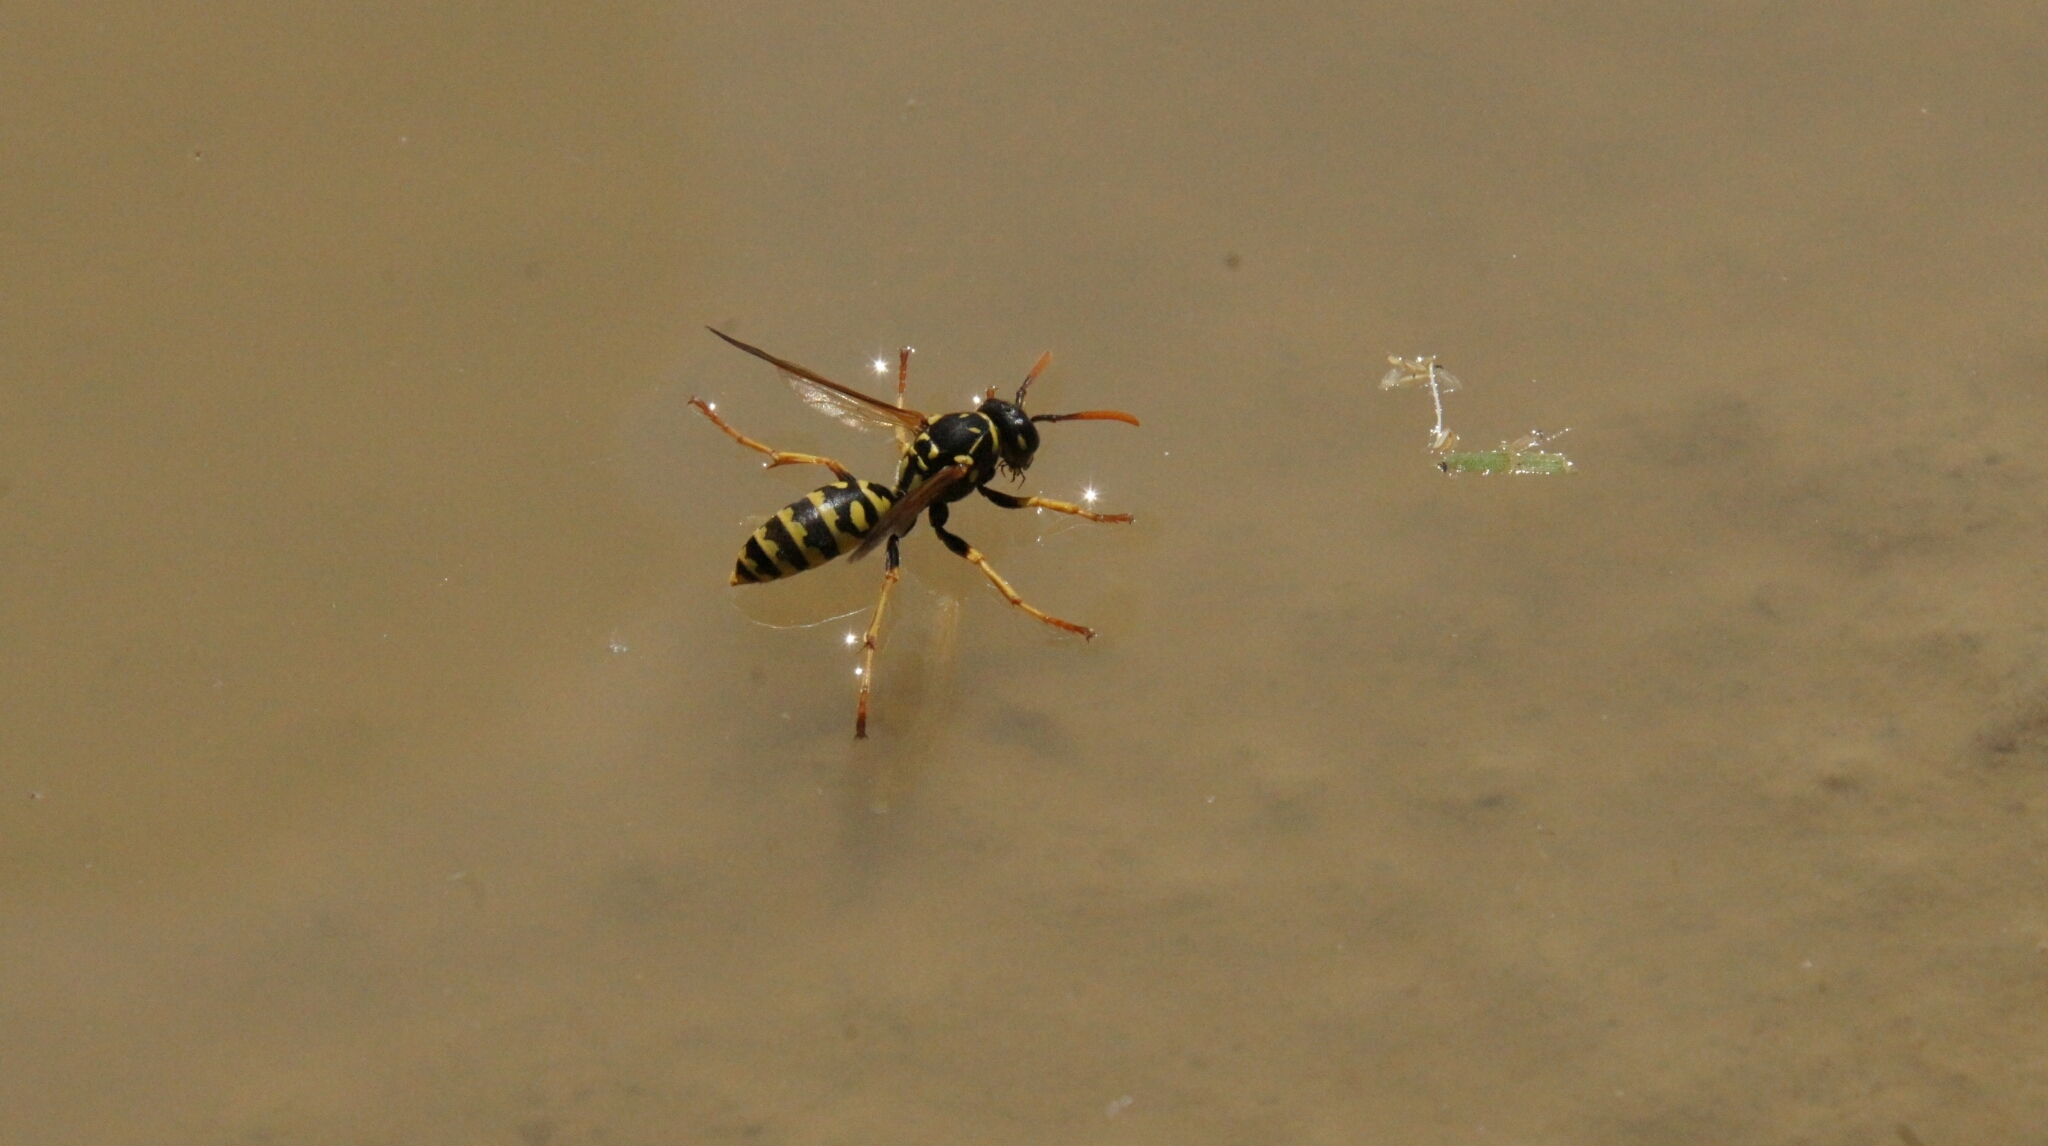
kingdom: Animalia
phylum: Arthropoda
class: Insecta
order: Hymenoptera
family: Eumenidae
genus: Polistes
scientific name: Polistes dominula
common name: Paper wasp
